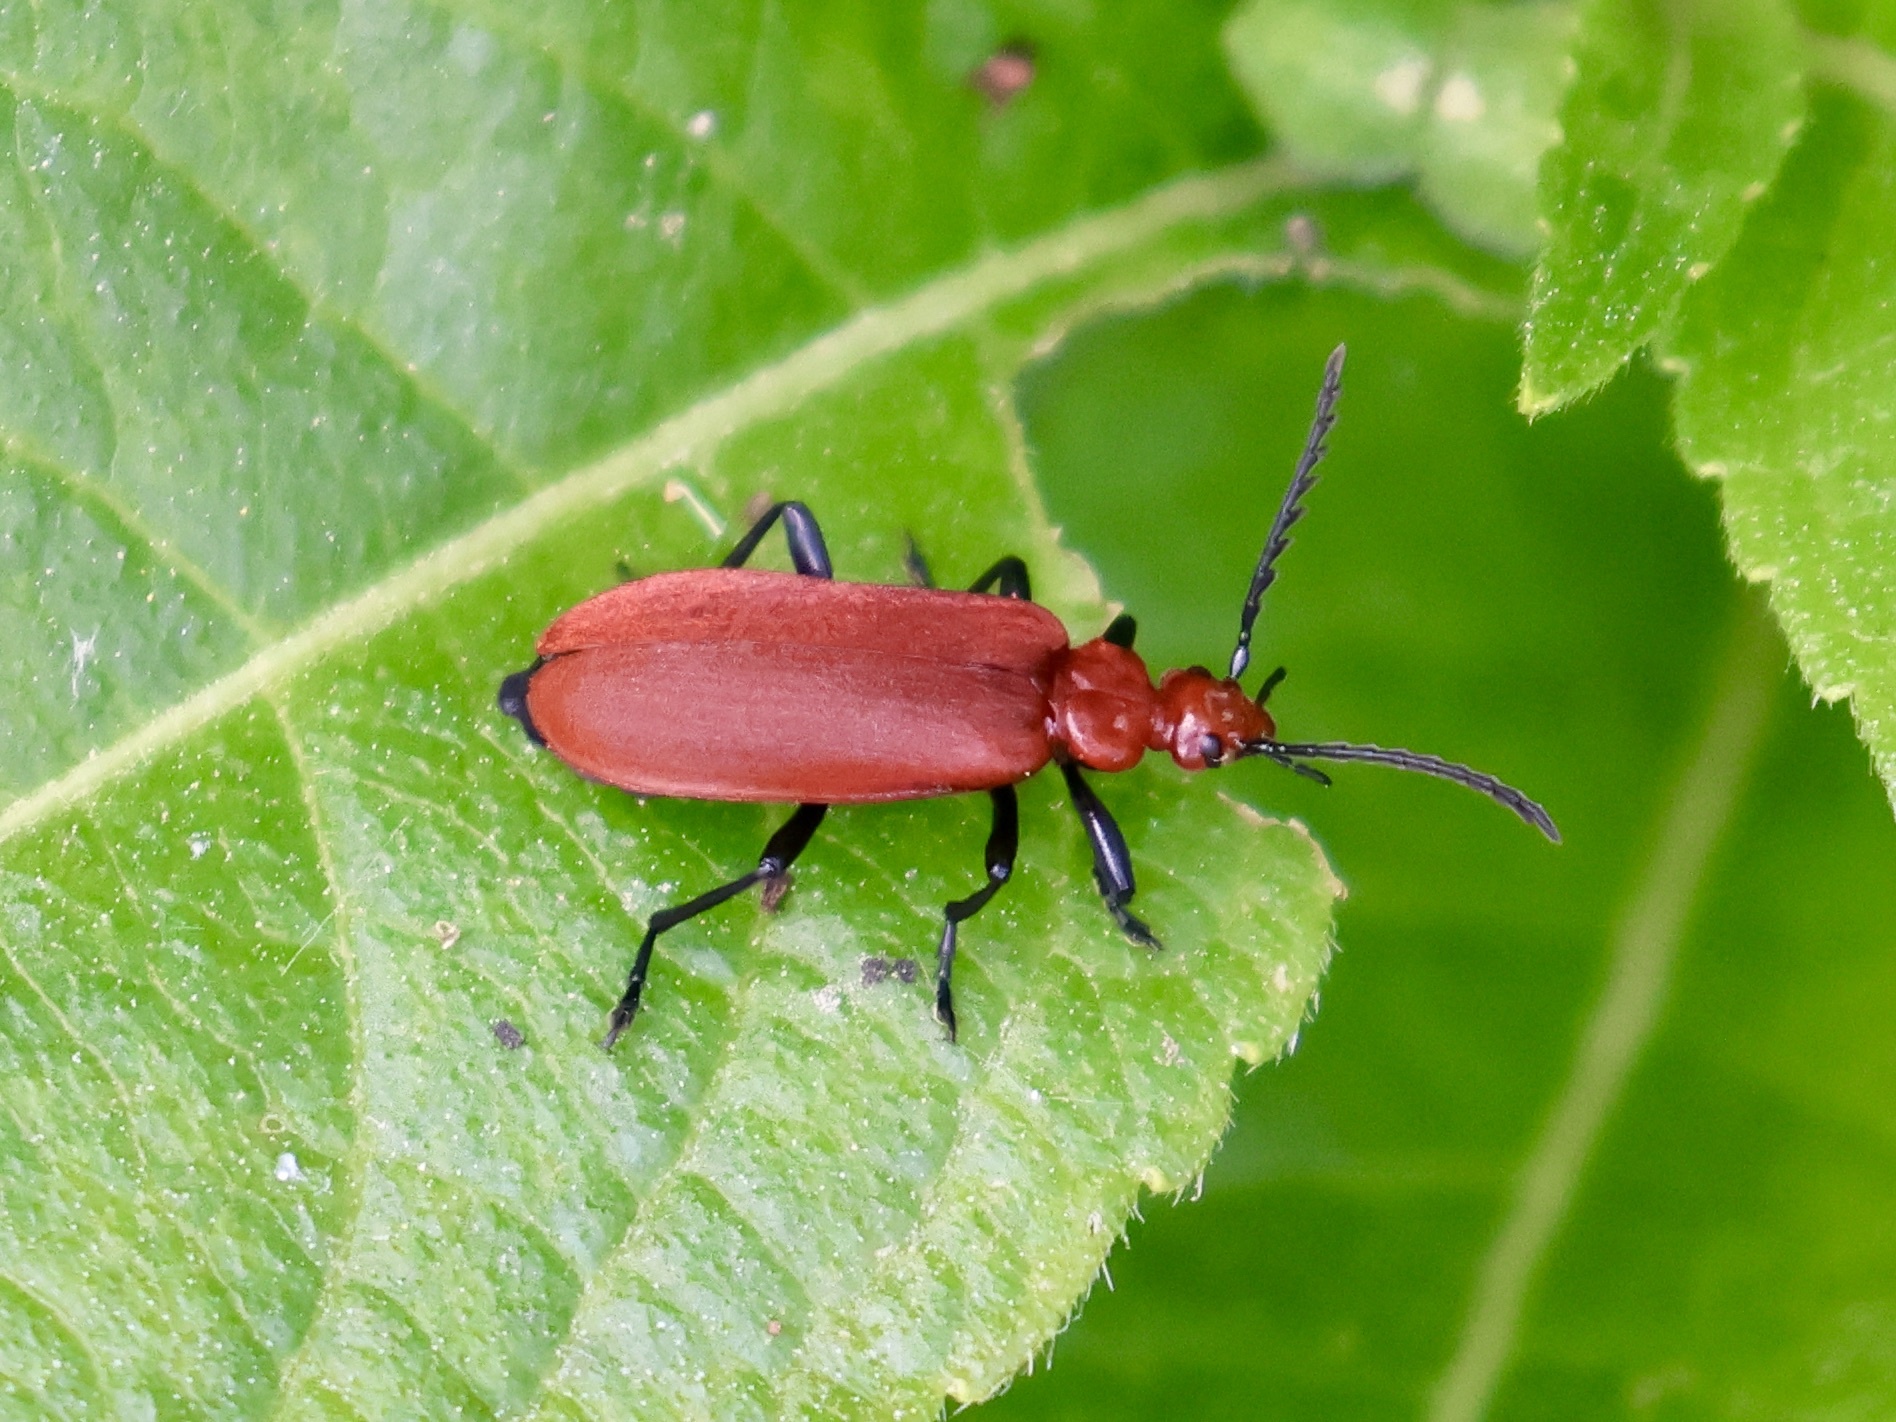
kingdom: Animalia
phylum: Arthropoda
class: Insecta
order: Coleoptera
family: Pyrochroidae
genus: Pyrochroa
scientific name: Pyrochroa serraticornis
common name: Red-headed cardinal beetle
